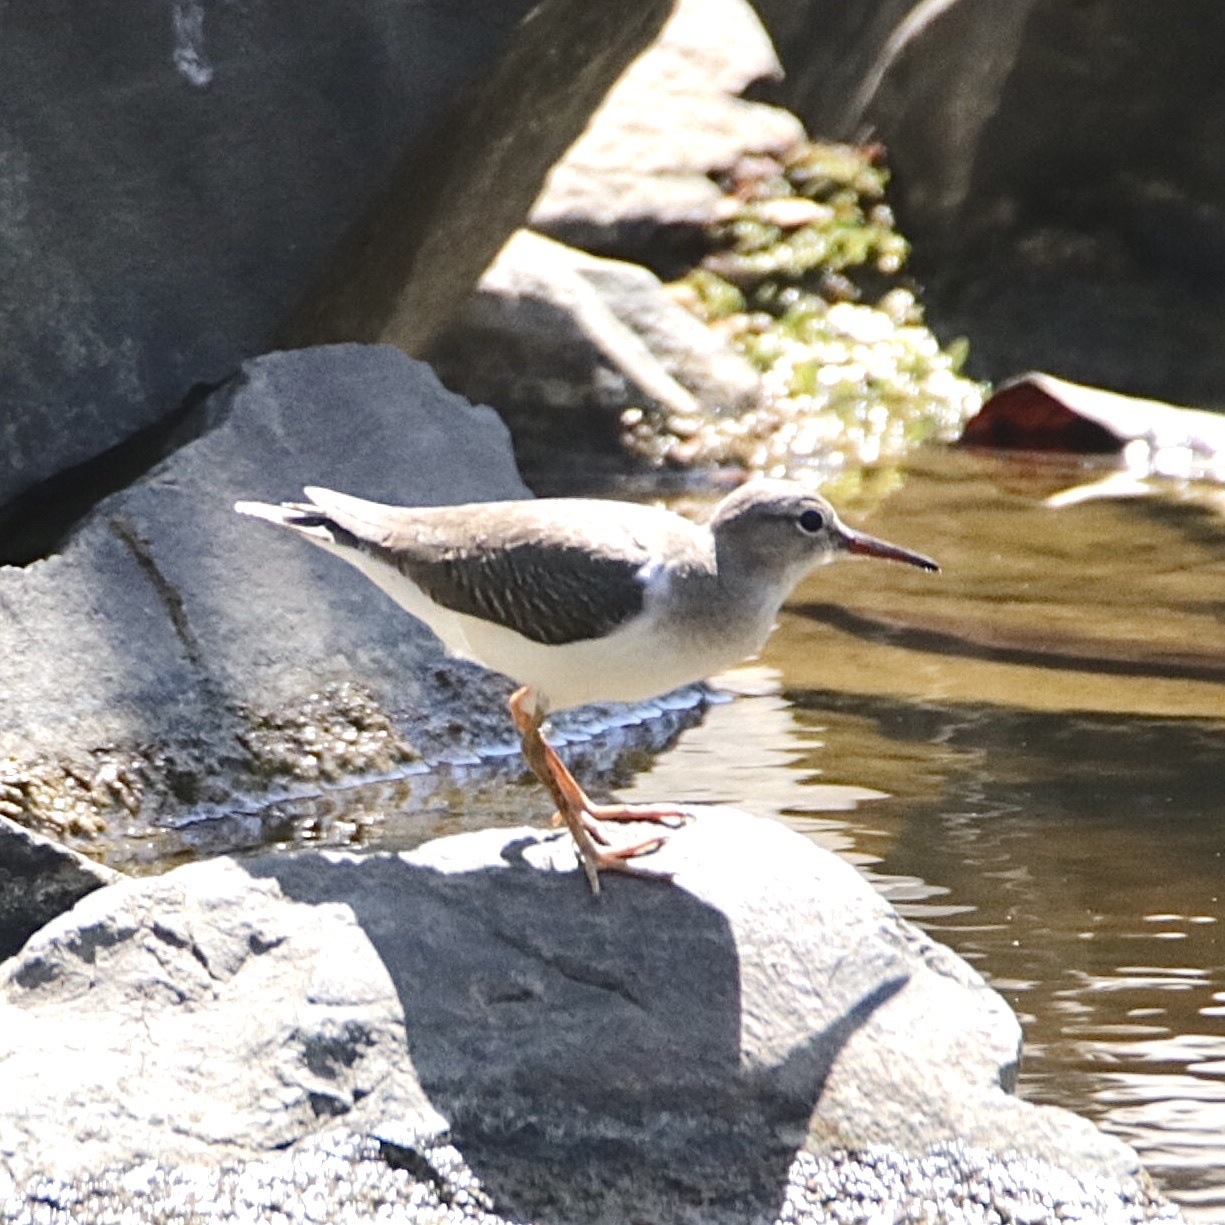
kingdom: Animalia
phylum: Chordata
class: Aves
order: Charadriiformes
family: Scolopacidae
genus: Actitis
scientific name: Actitis macularius
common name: Spotted sandpiper
